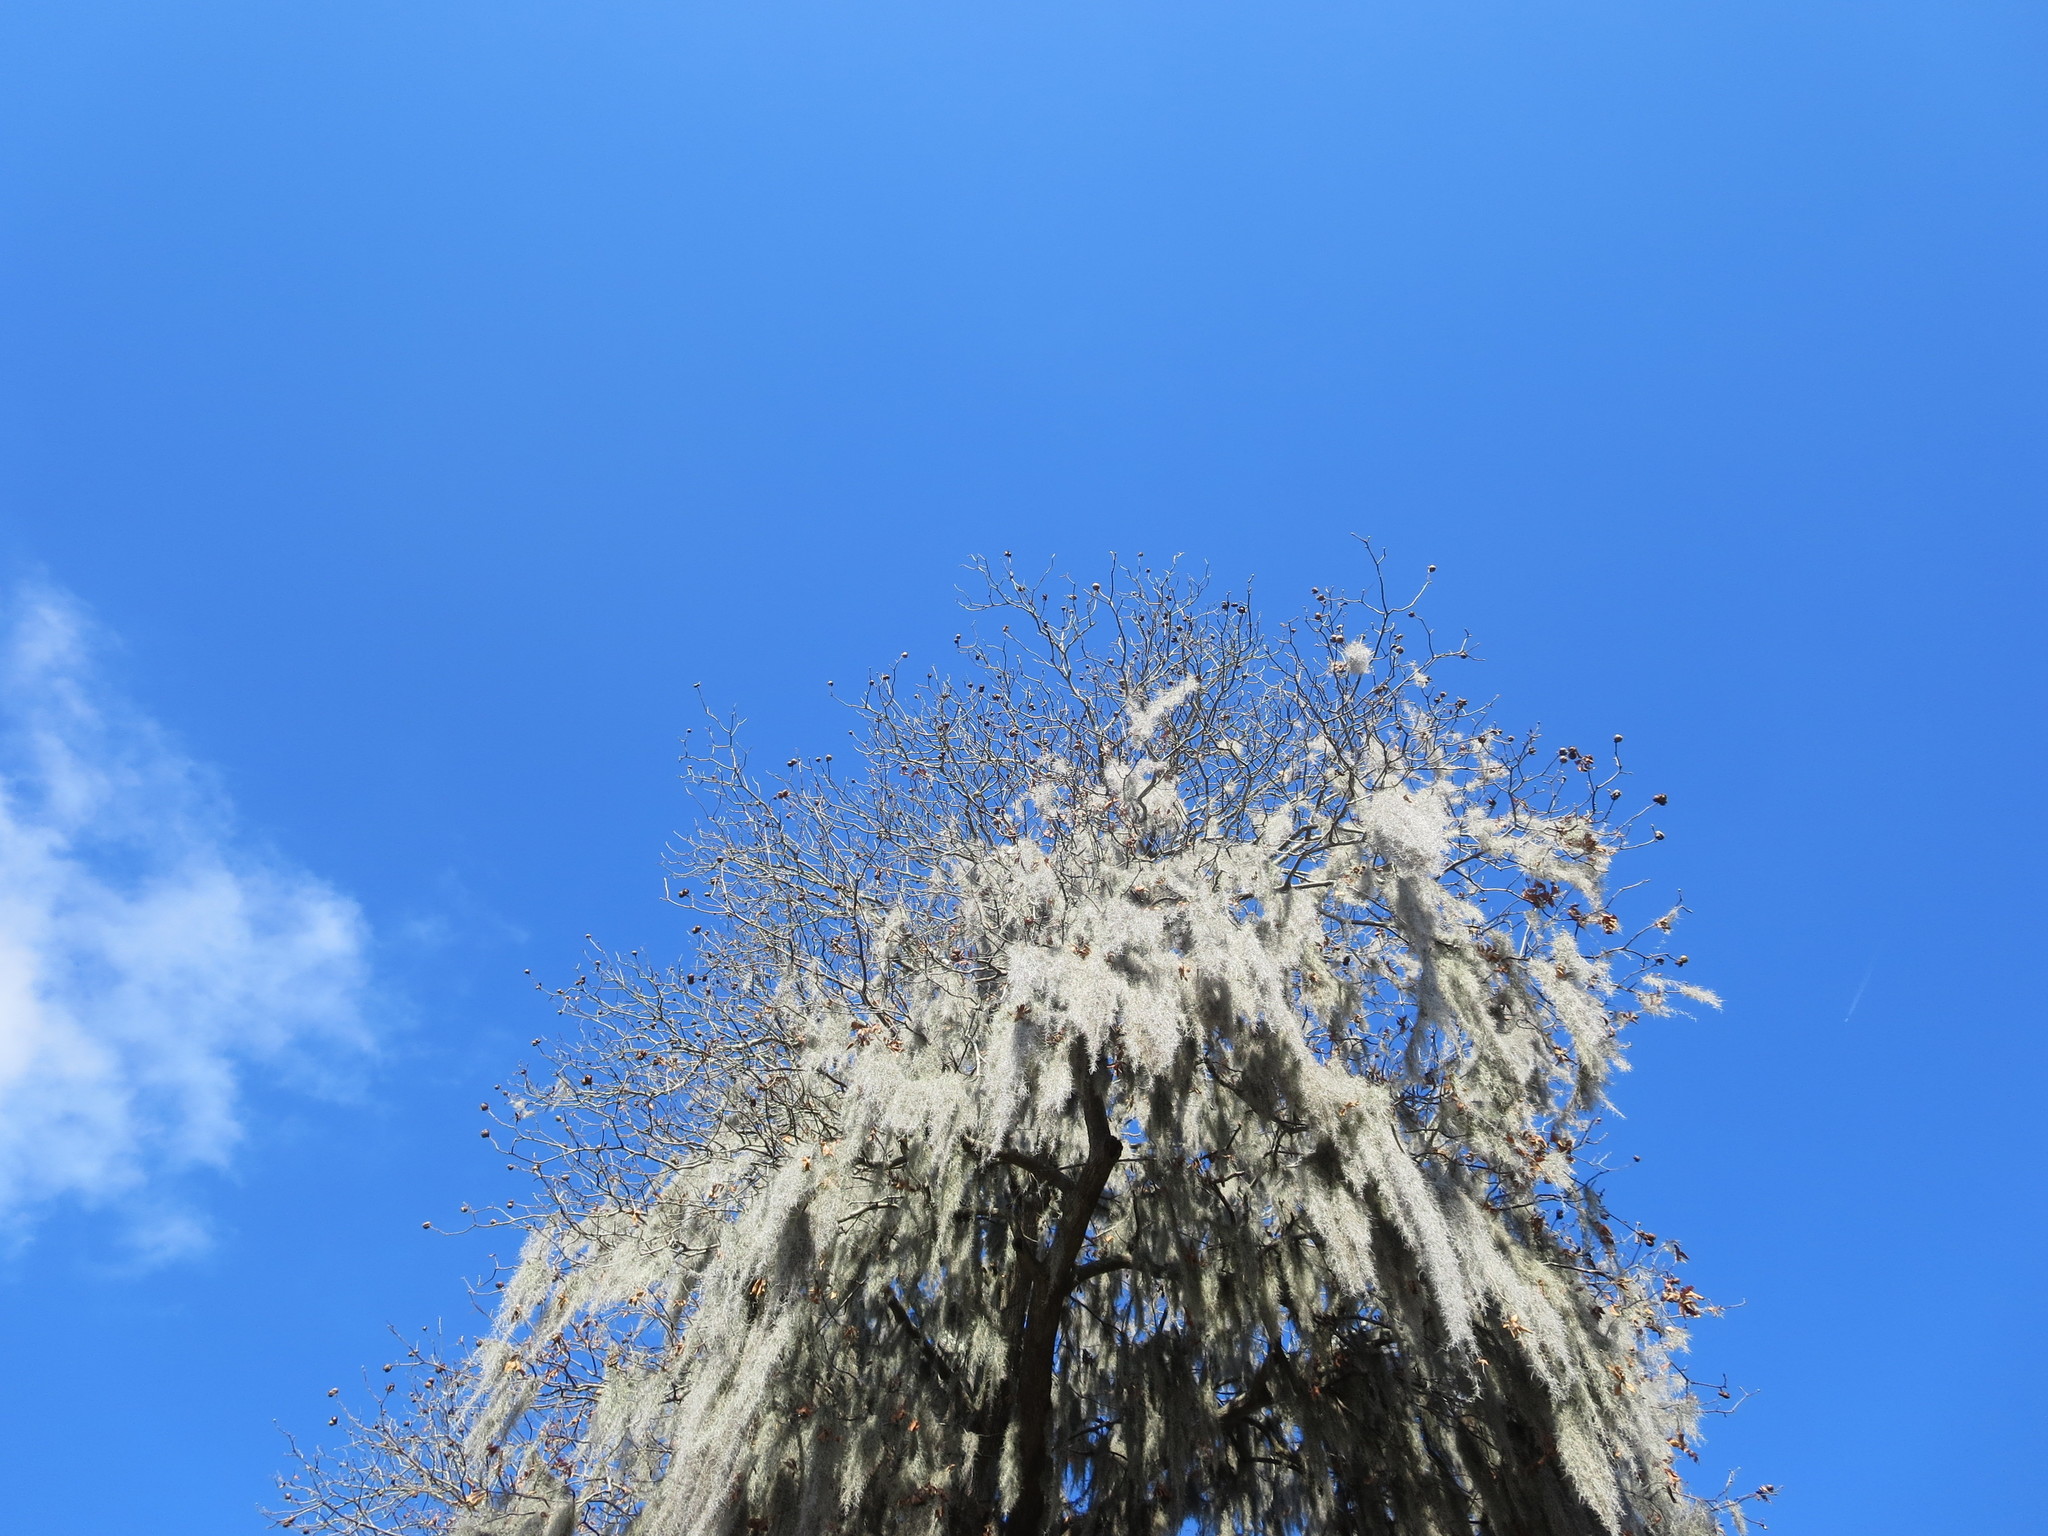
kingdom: Plantae
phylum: Tracheophyta
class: Liliopsida
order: Poales
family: Bromeliaceae
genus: Tillandsia
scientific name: Tillandsia usneoides
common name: Spanish moss
